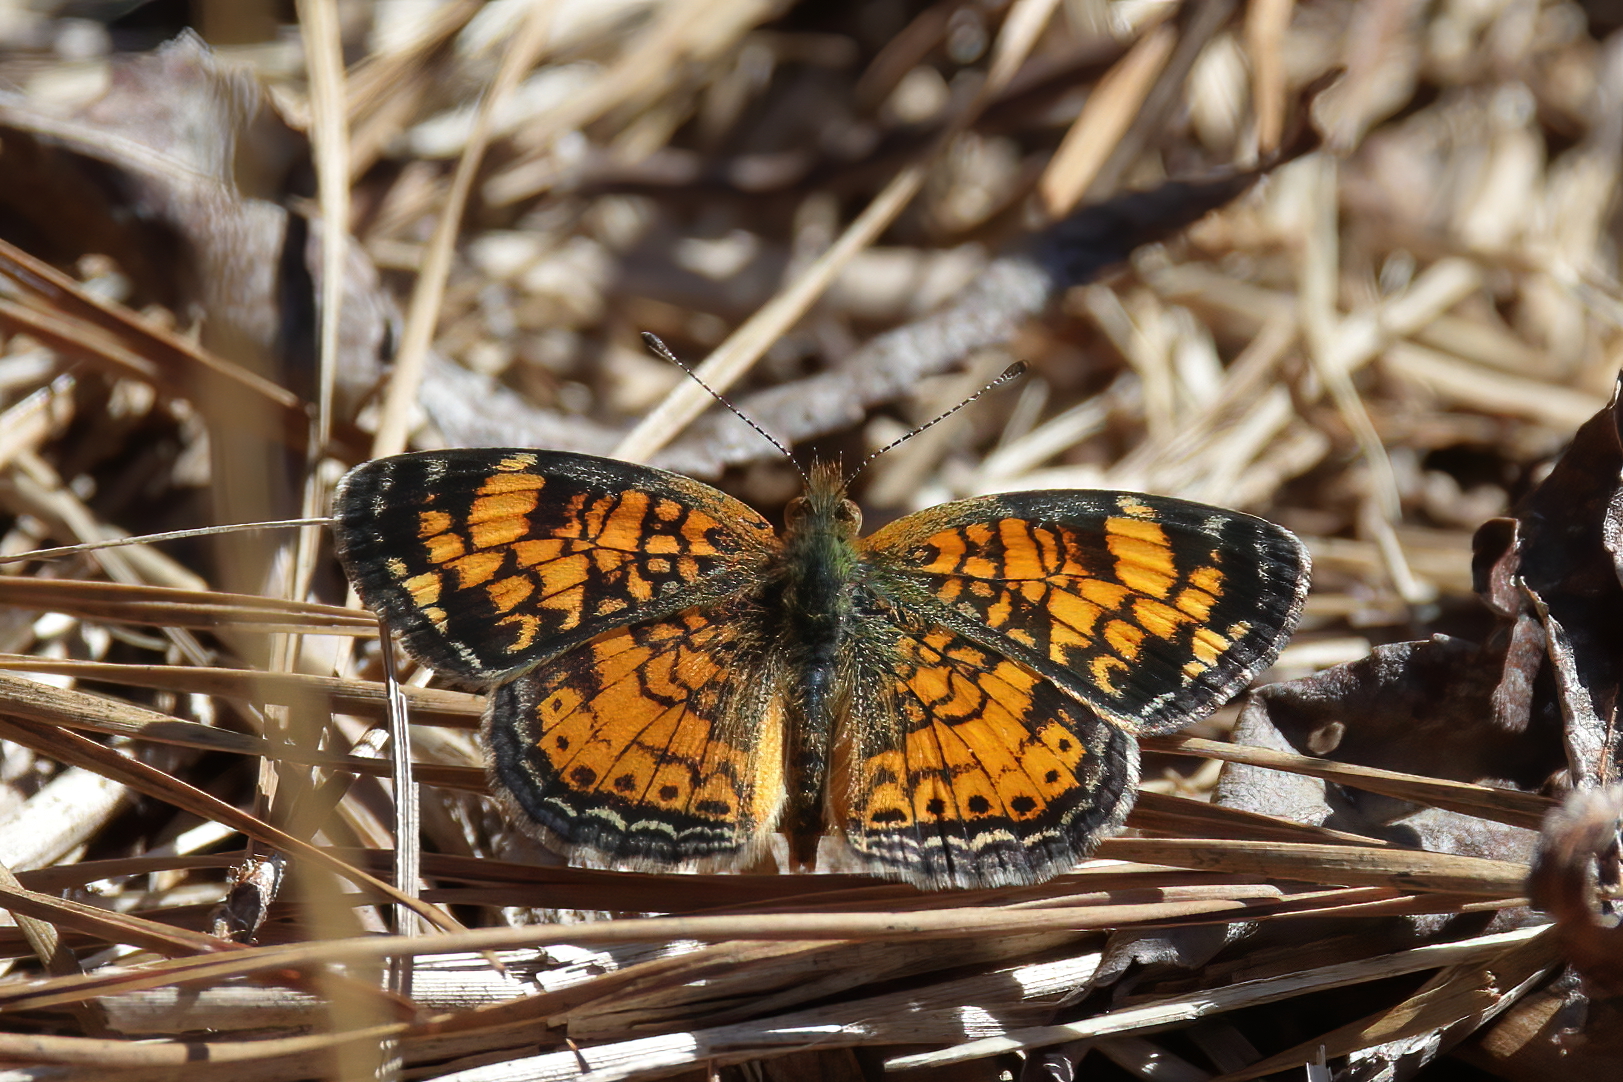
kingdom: Animalia
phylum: Arthropoda
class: Insecta
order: Lepidoptera
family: Nymphalidae
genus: Phyciodes
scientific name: Phyciodes tharos
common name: Pearl crescent
